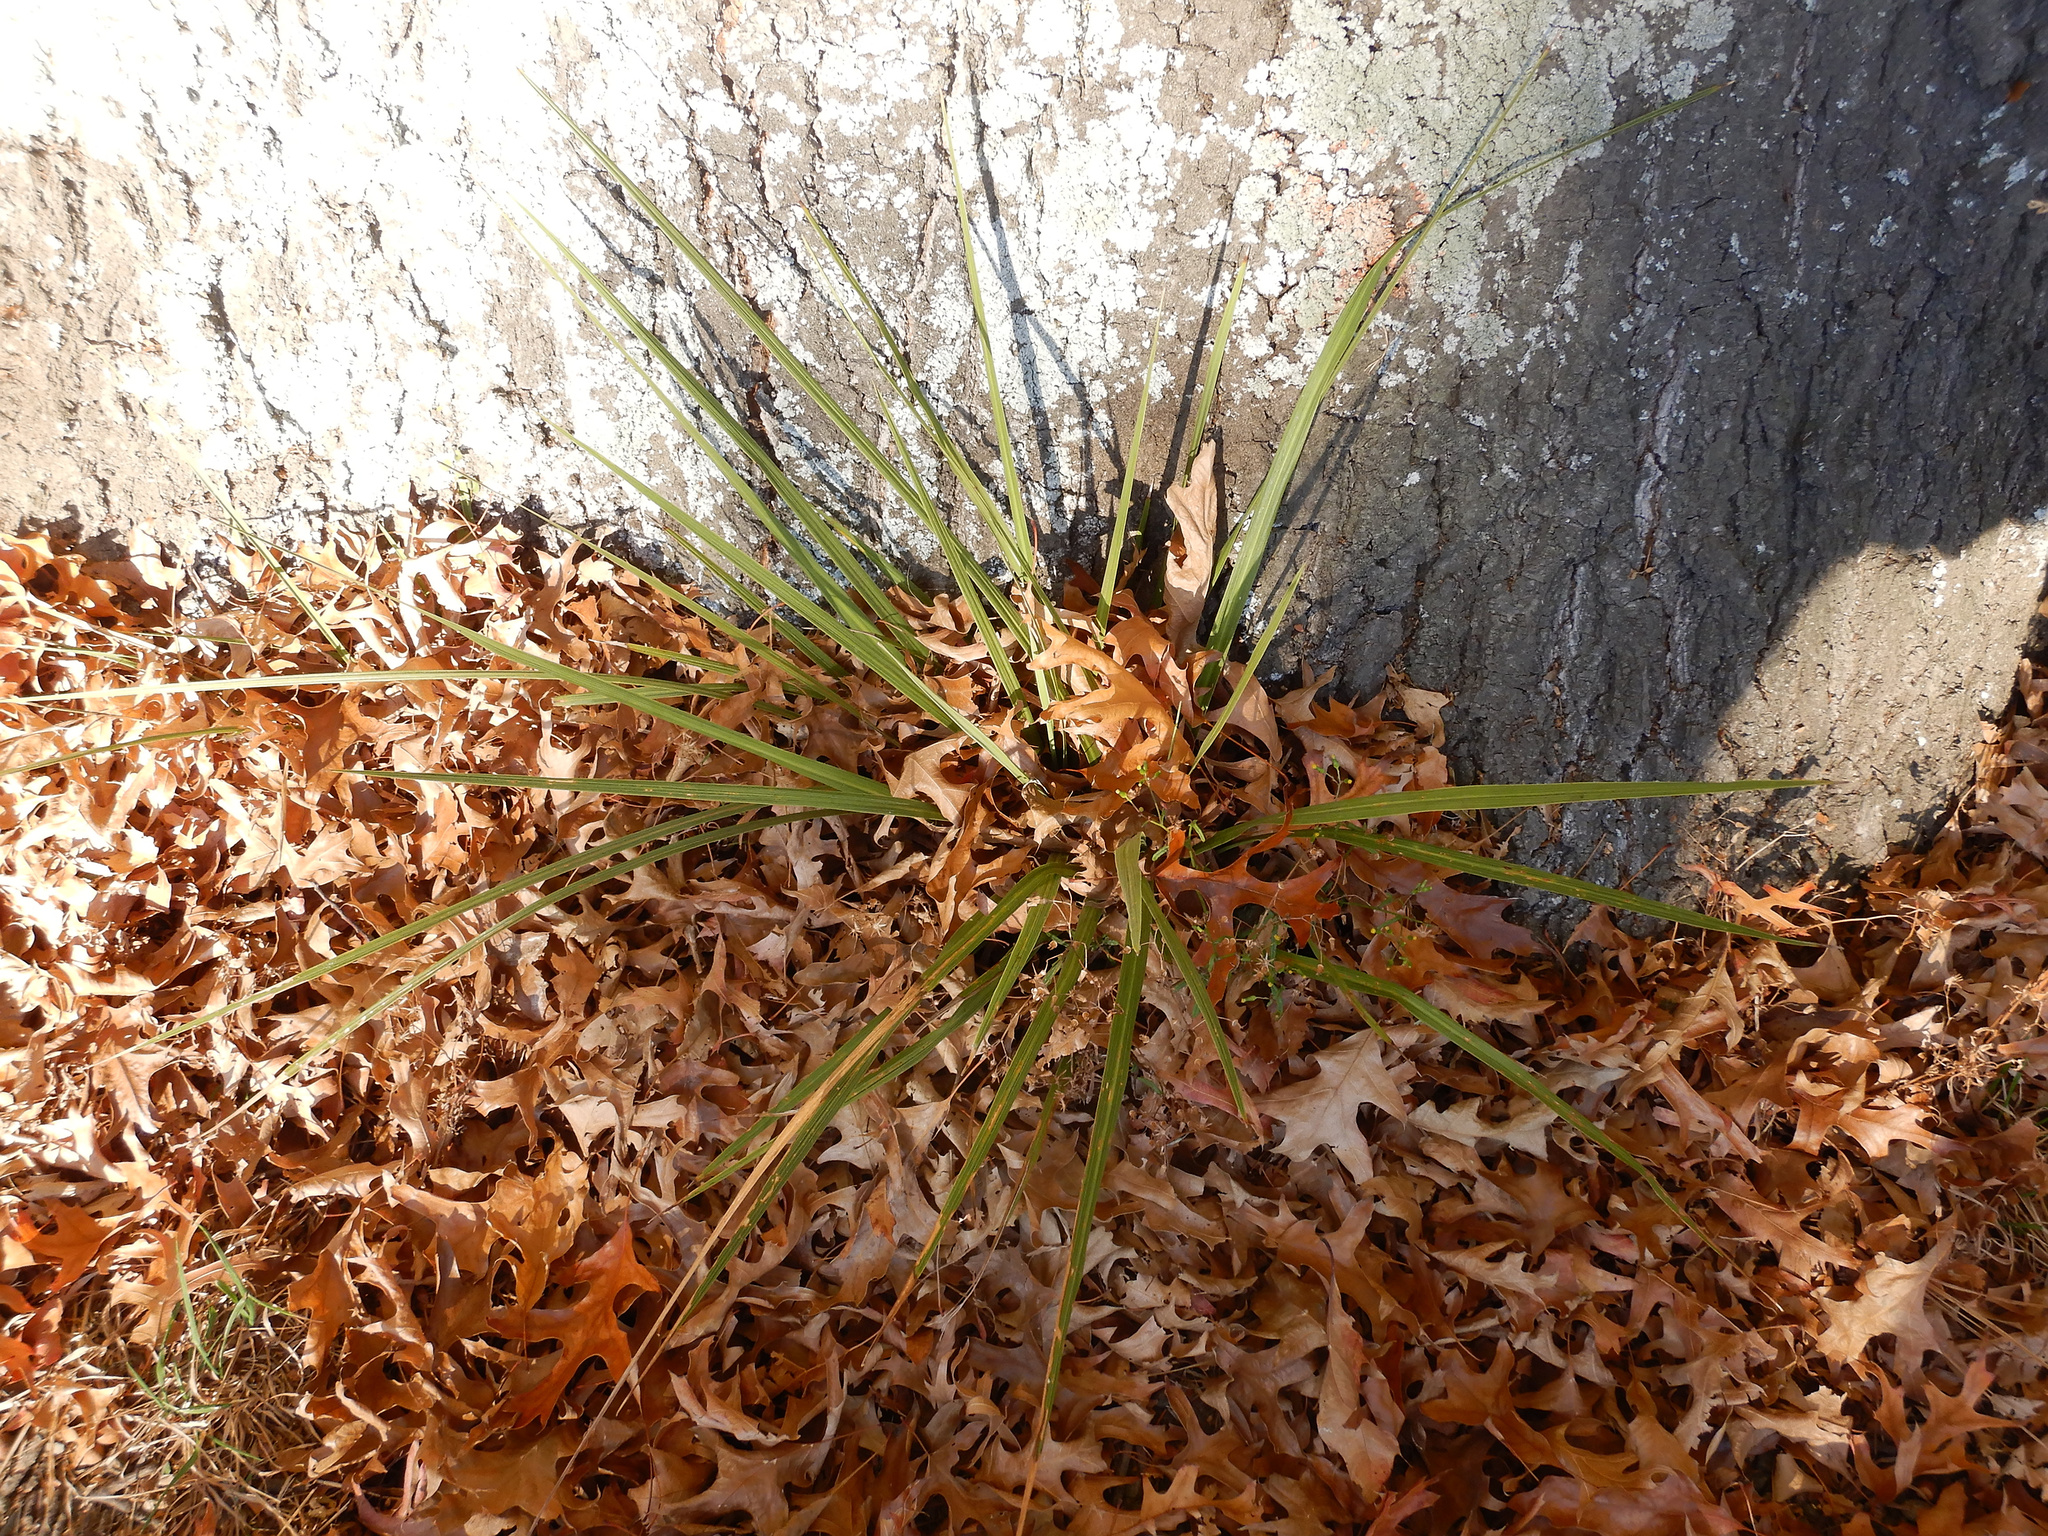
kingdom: Plantae
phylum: Tracheophyta
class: Liliopsida
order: Asparagales
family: Asparagaceae
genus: Cordyline
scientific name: Cordyline australis
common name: Cabbage-palm
